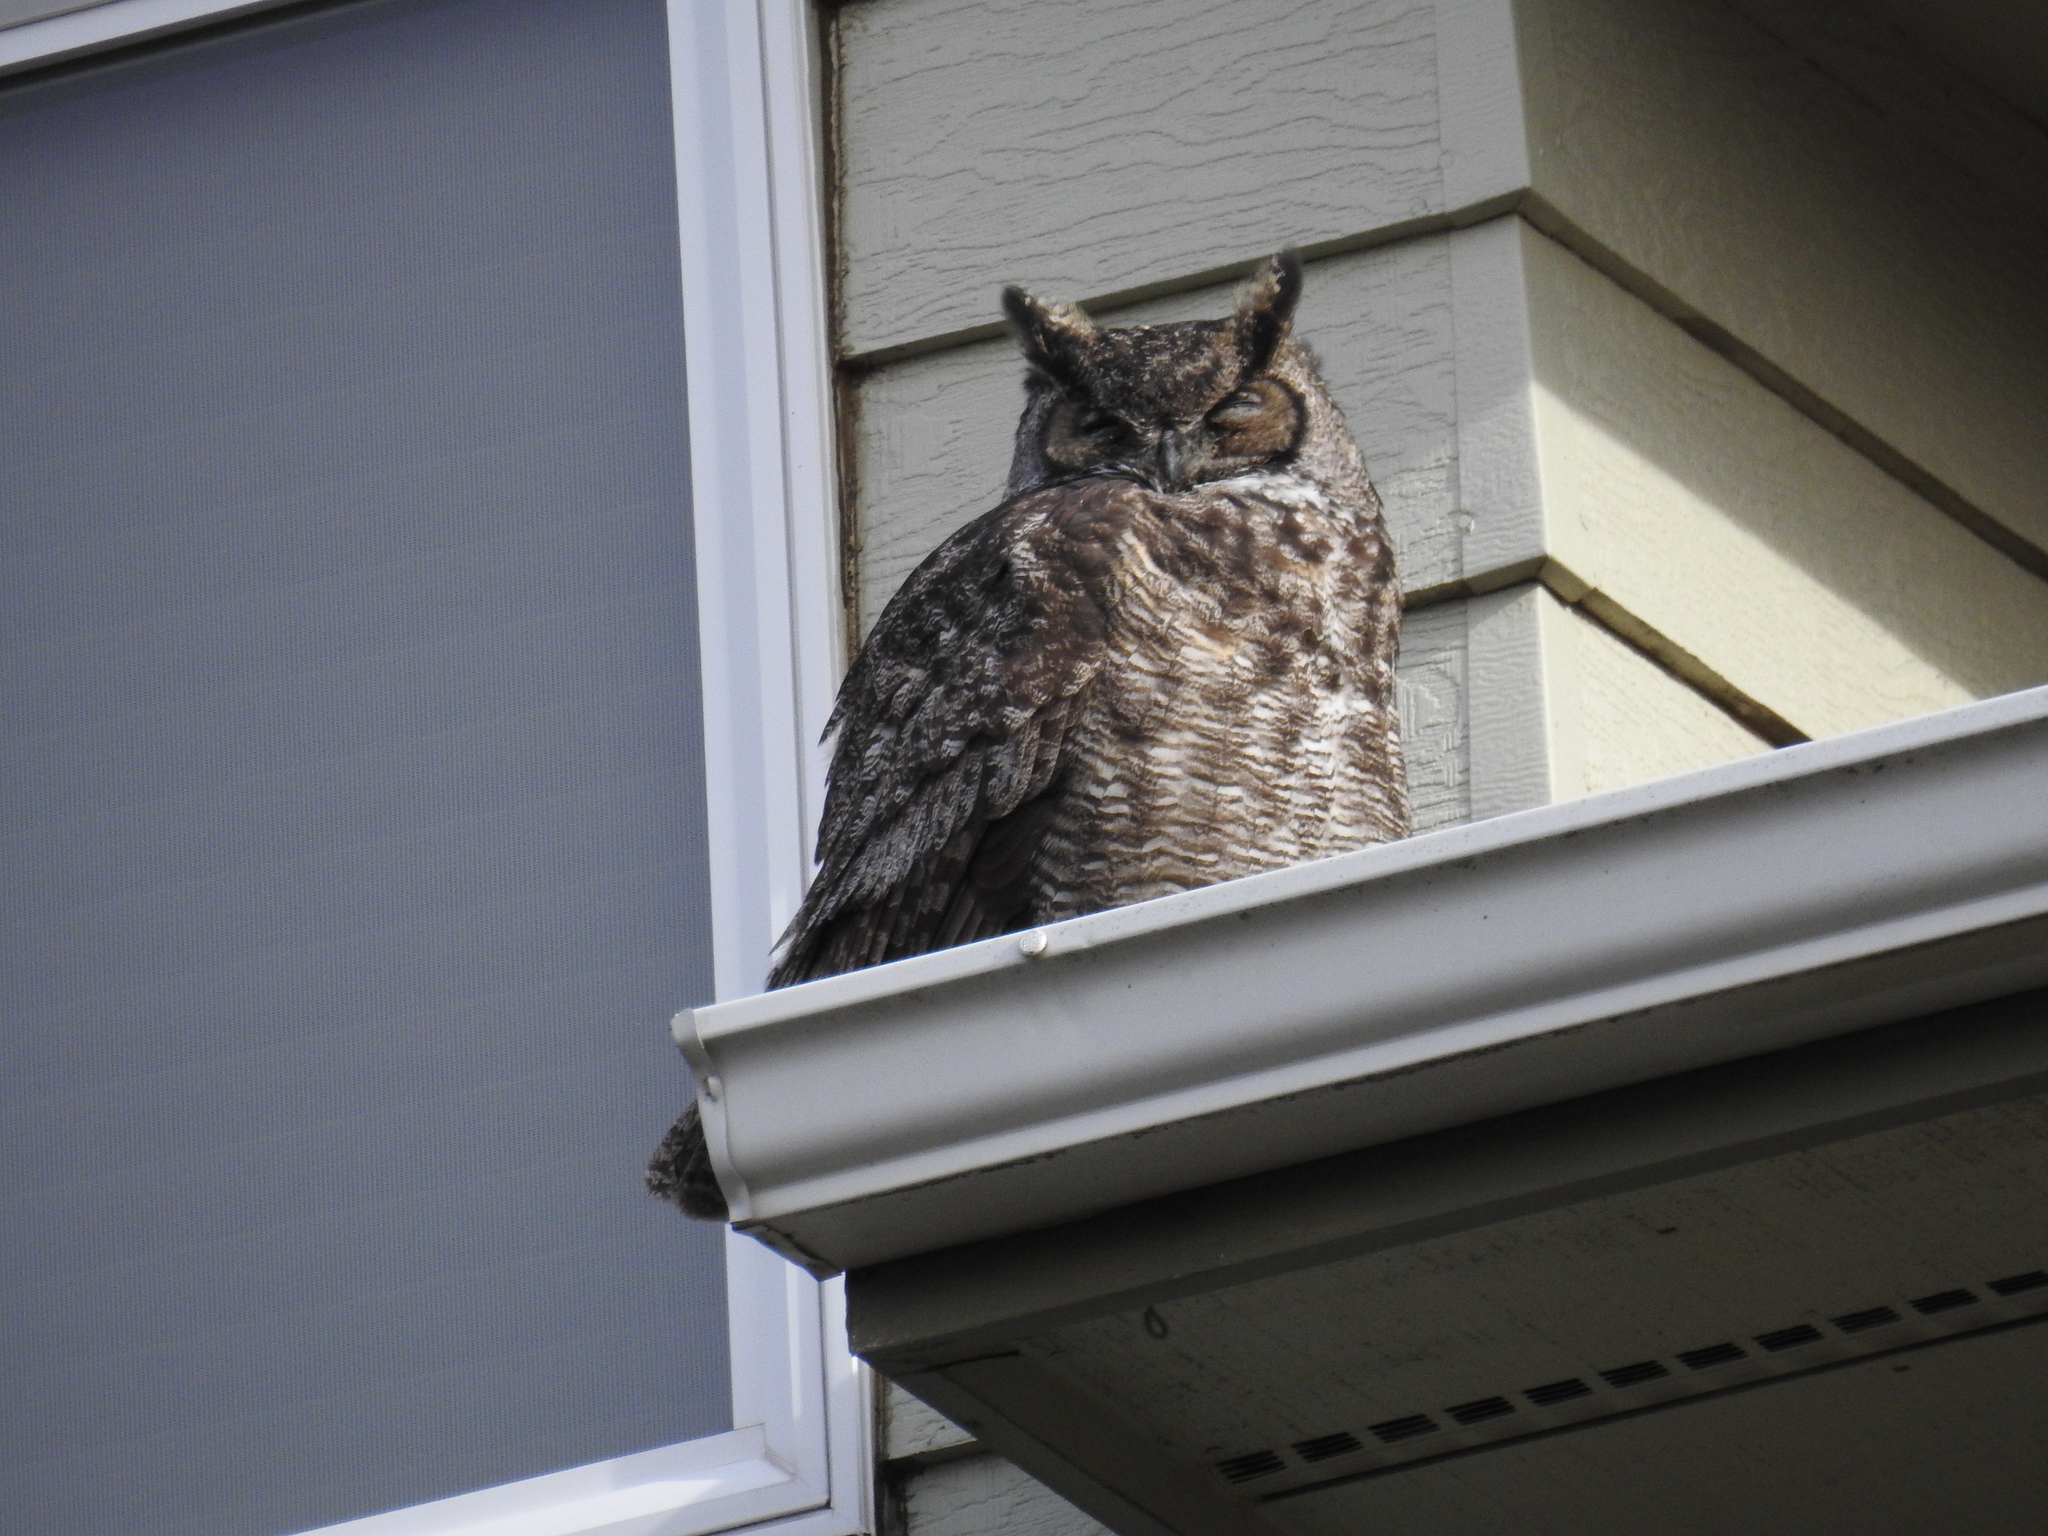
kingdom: Animalia
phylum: Chordata
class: Aves
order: Strigiformes
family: Strigidae
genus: Bubo
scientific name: Bubo virginianus
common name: Great horned owl
